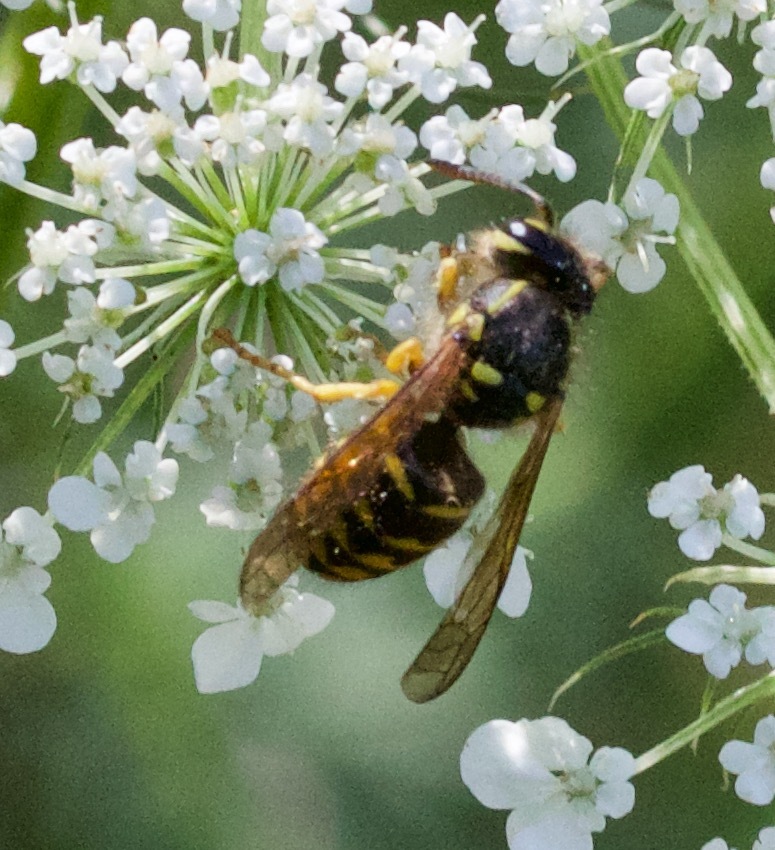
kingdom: Animalia
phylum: Arthropoda
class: Insecta
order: Hymenoptera
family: Vespidae
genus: Dolichovespula
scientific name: Dolichovespula arenaria
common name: Aerial yellowjacket
